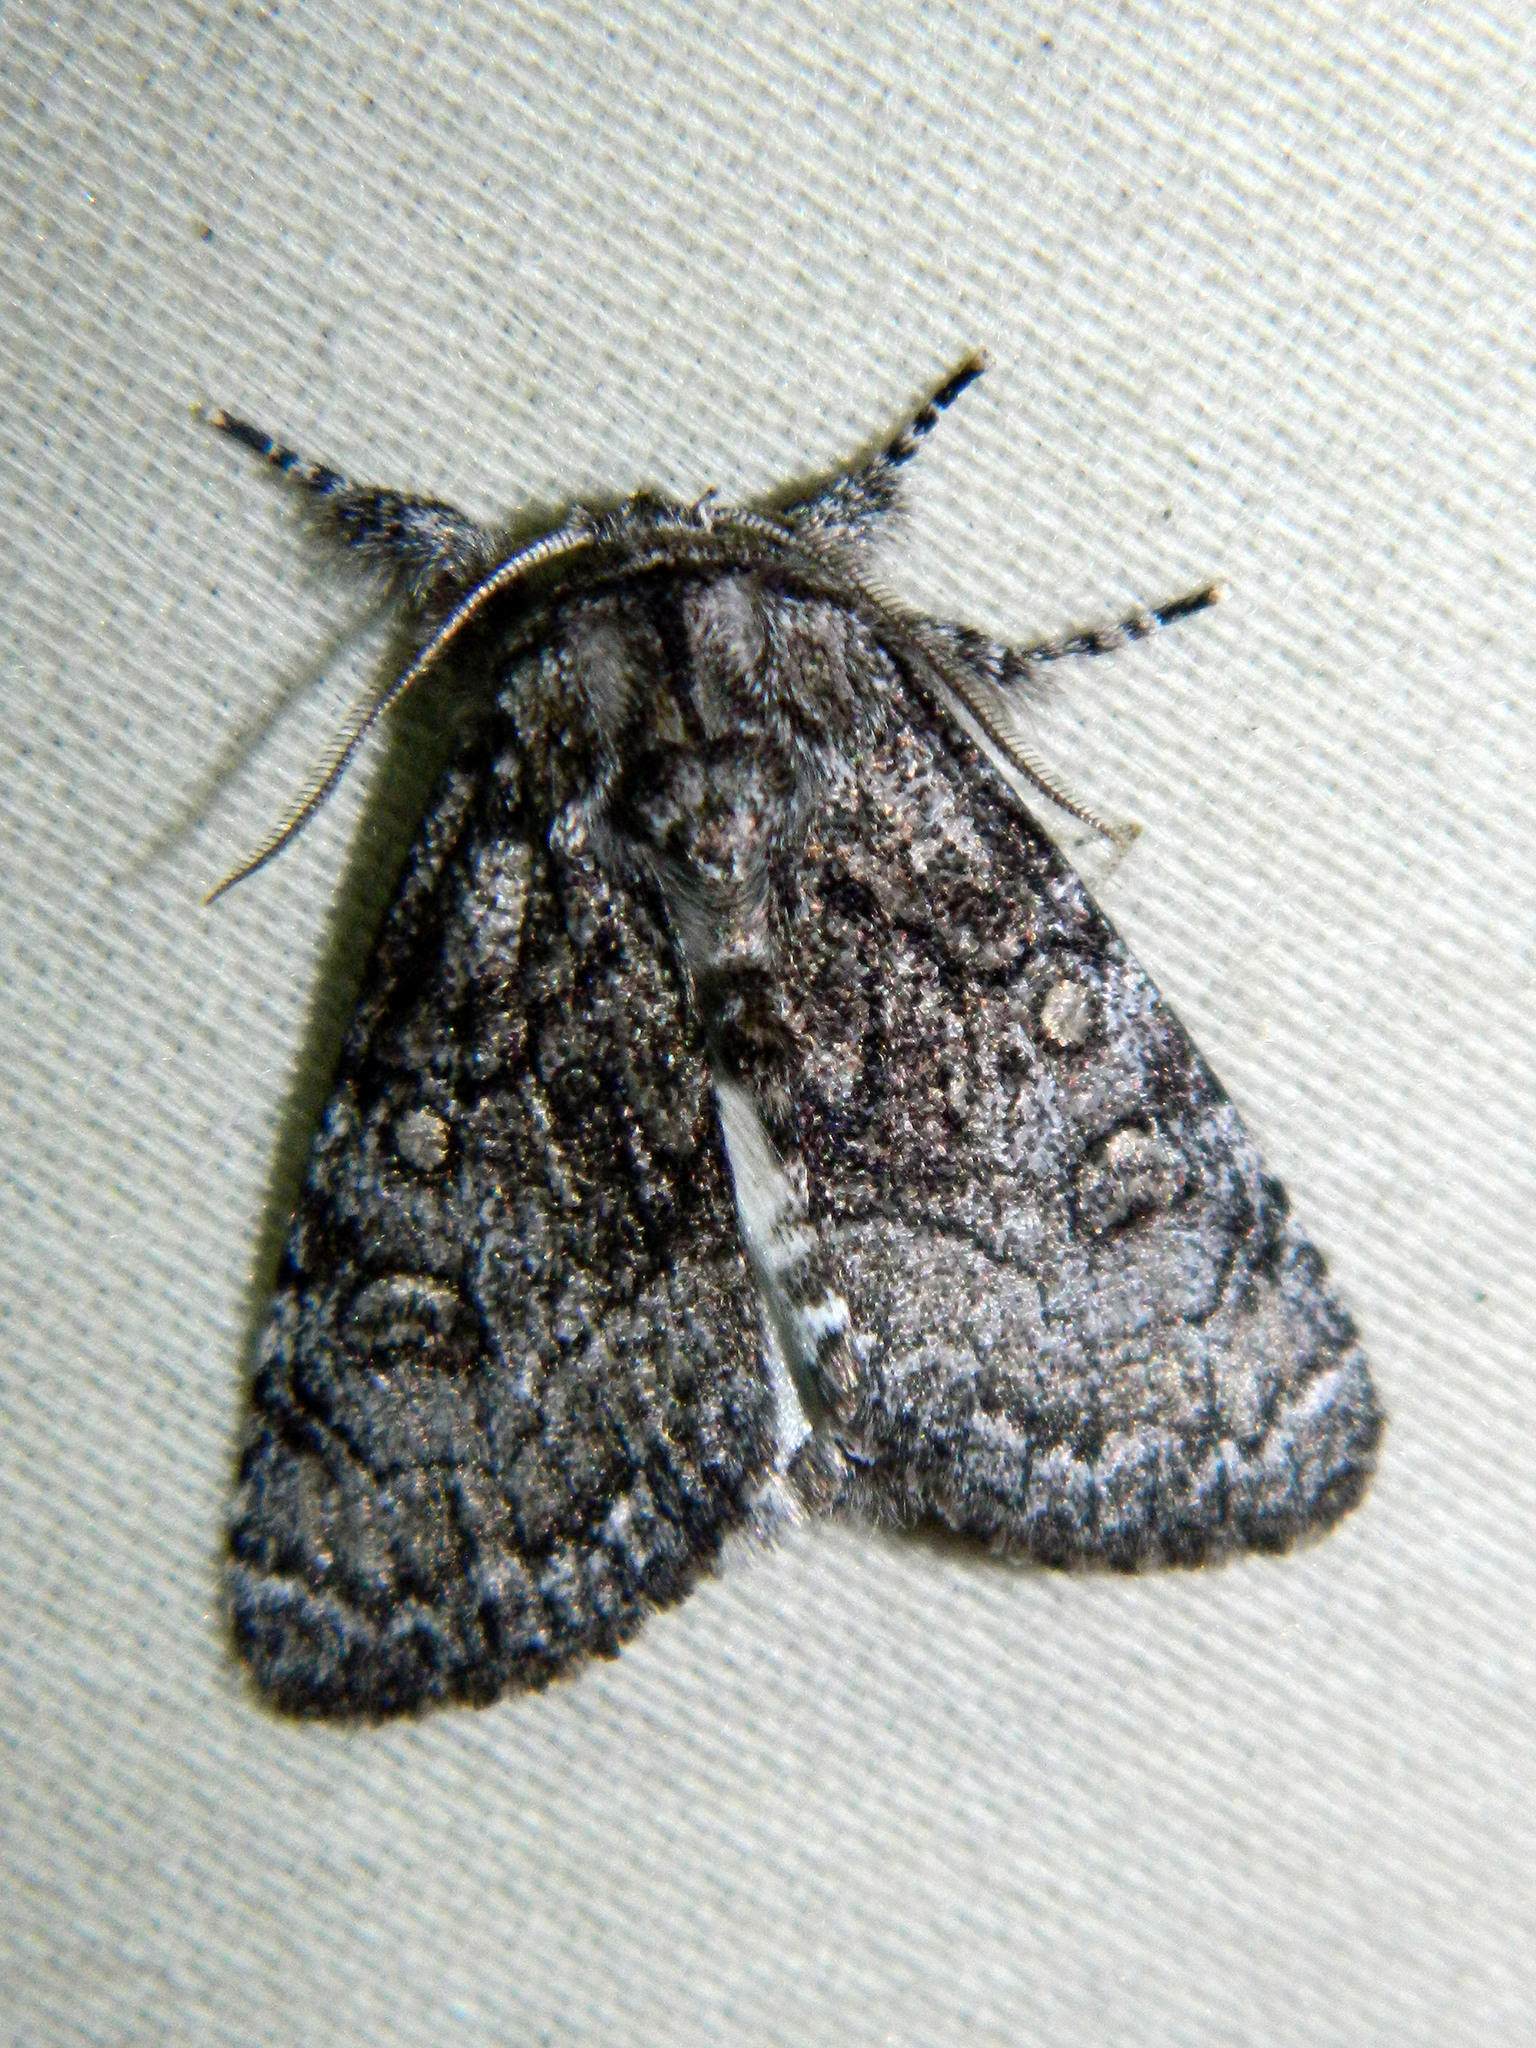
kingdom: Animalia
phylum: Arthropoda
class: Insecta
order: Lepidoptera
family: Noctuidae
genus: Raphia
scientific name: Raphia frater
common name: Brother
